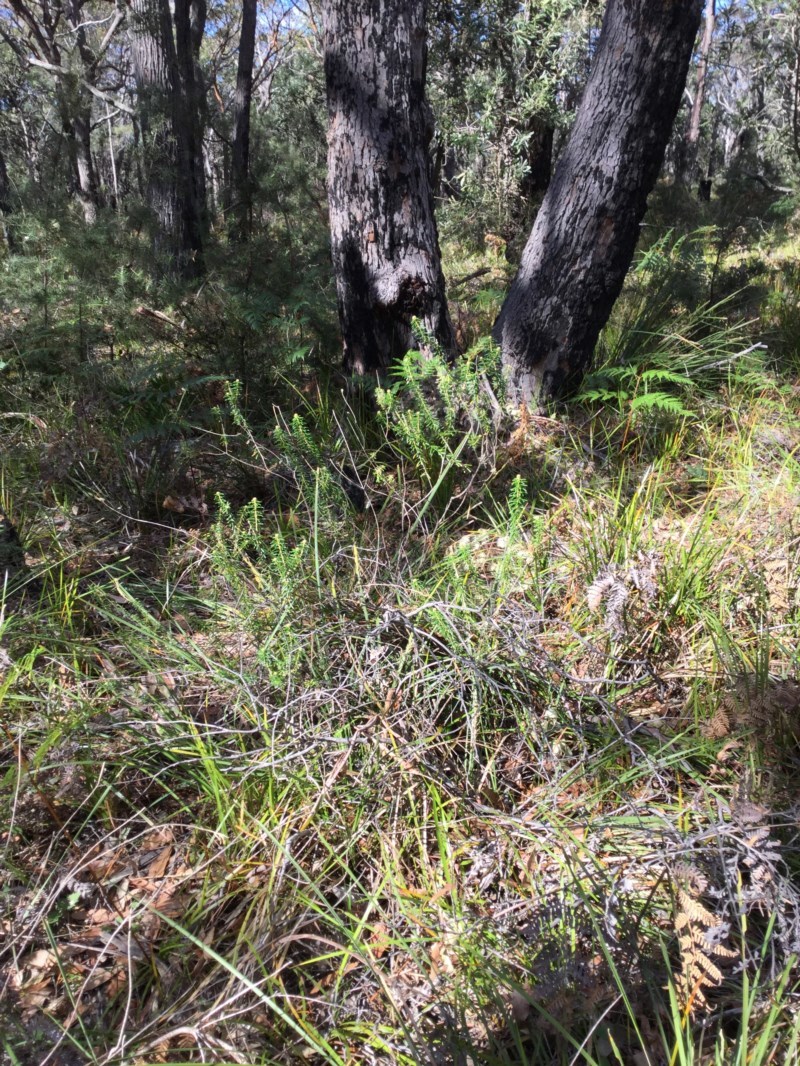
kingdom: Plantae
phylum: Tracheophyta
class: Magnoliopsida
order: Apiales
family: Araliaceae
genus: Astrotricha
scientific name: Astrotricha
